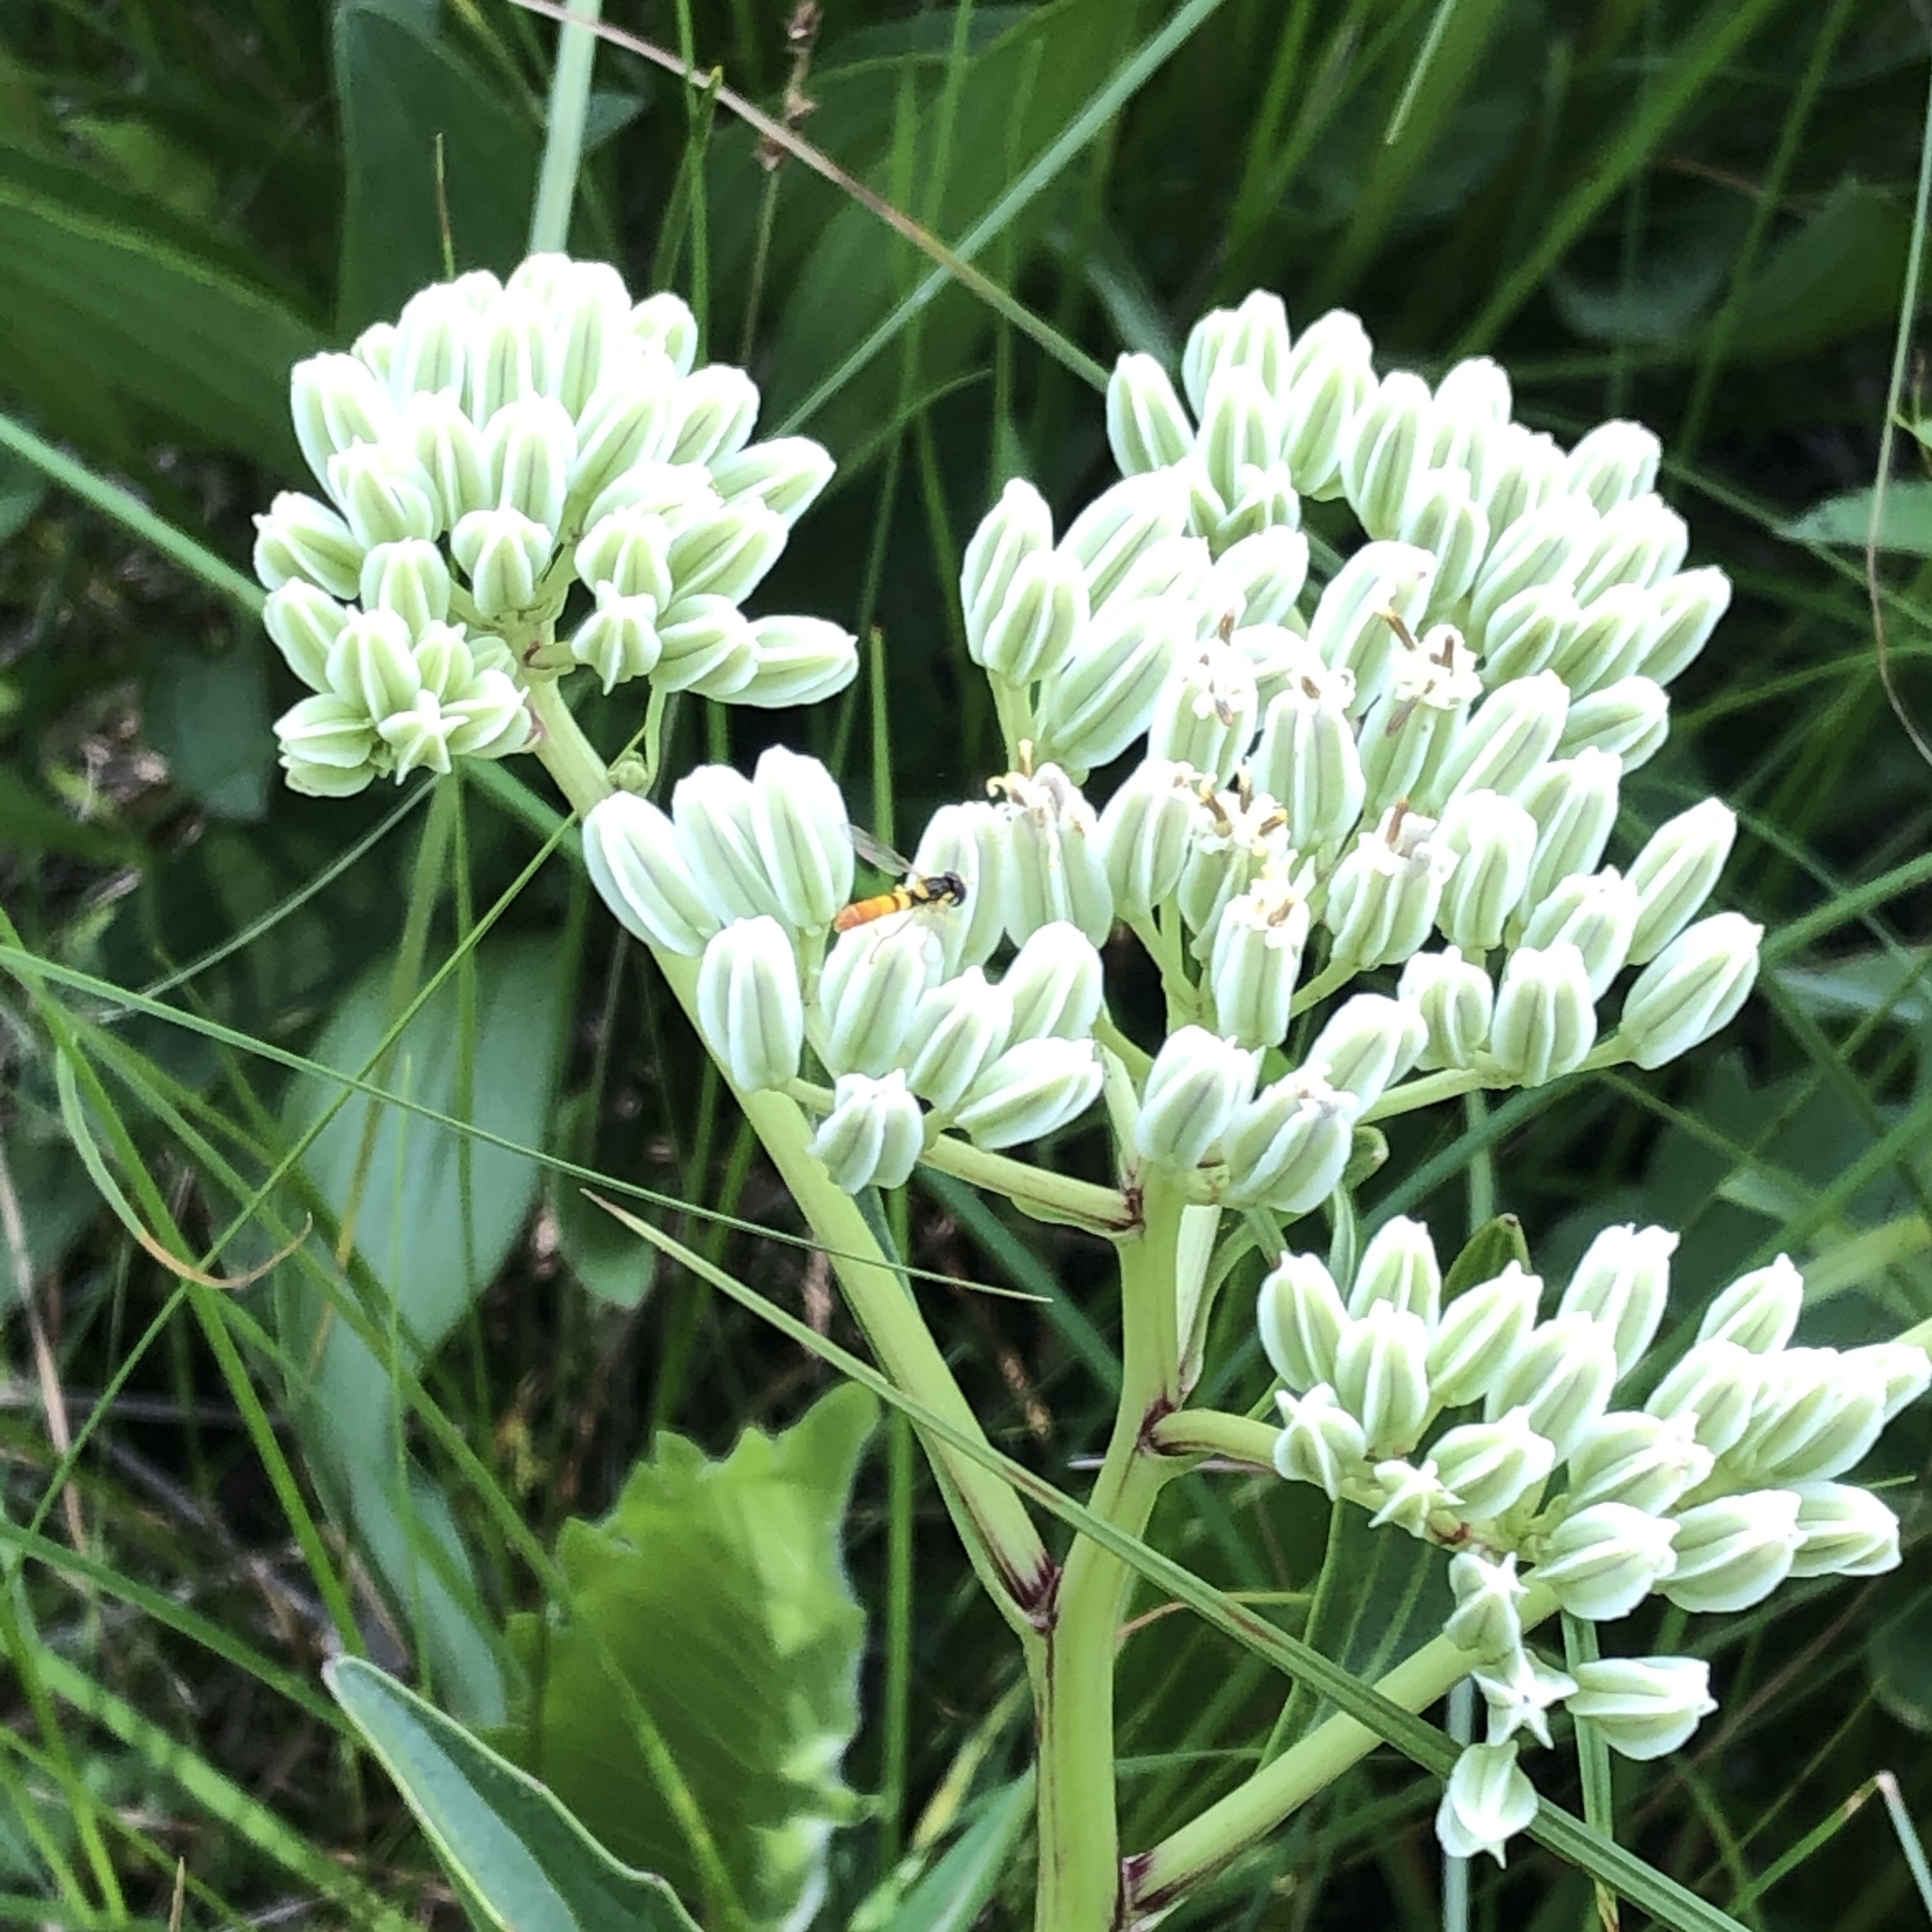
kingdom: Plantae
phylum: Tracheophyta
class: Magnoliopsida
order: Asterales
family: Asteraceae
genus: Arnoglossum
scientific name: Arnoglossum plantagineum
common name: Groove-stemmed indian-plantain
